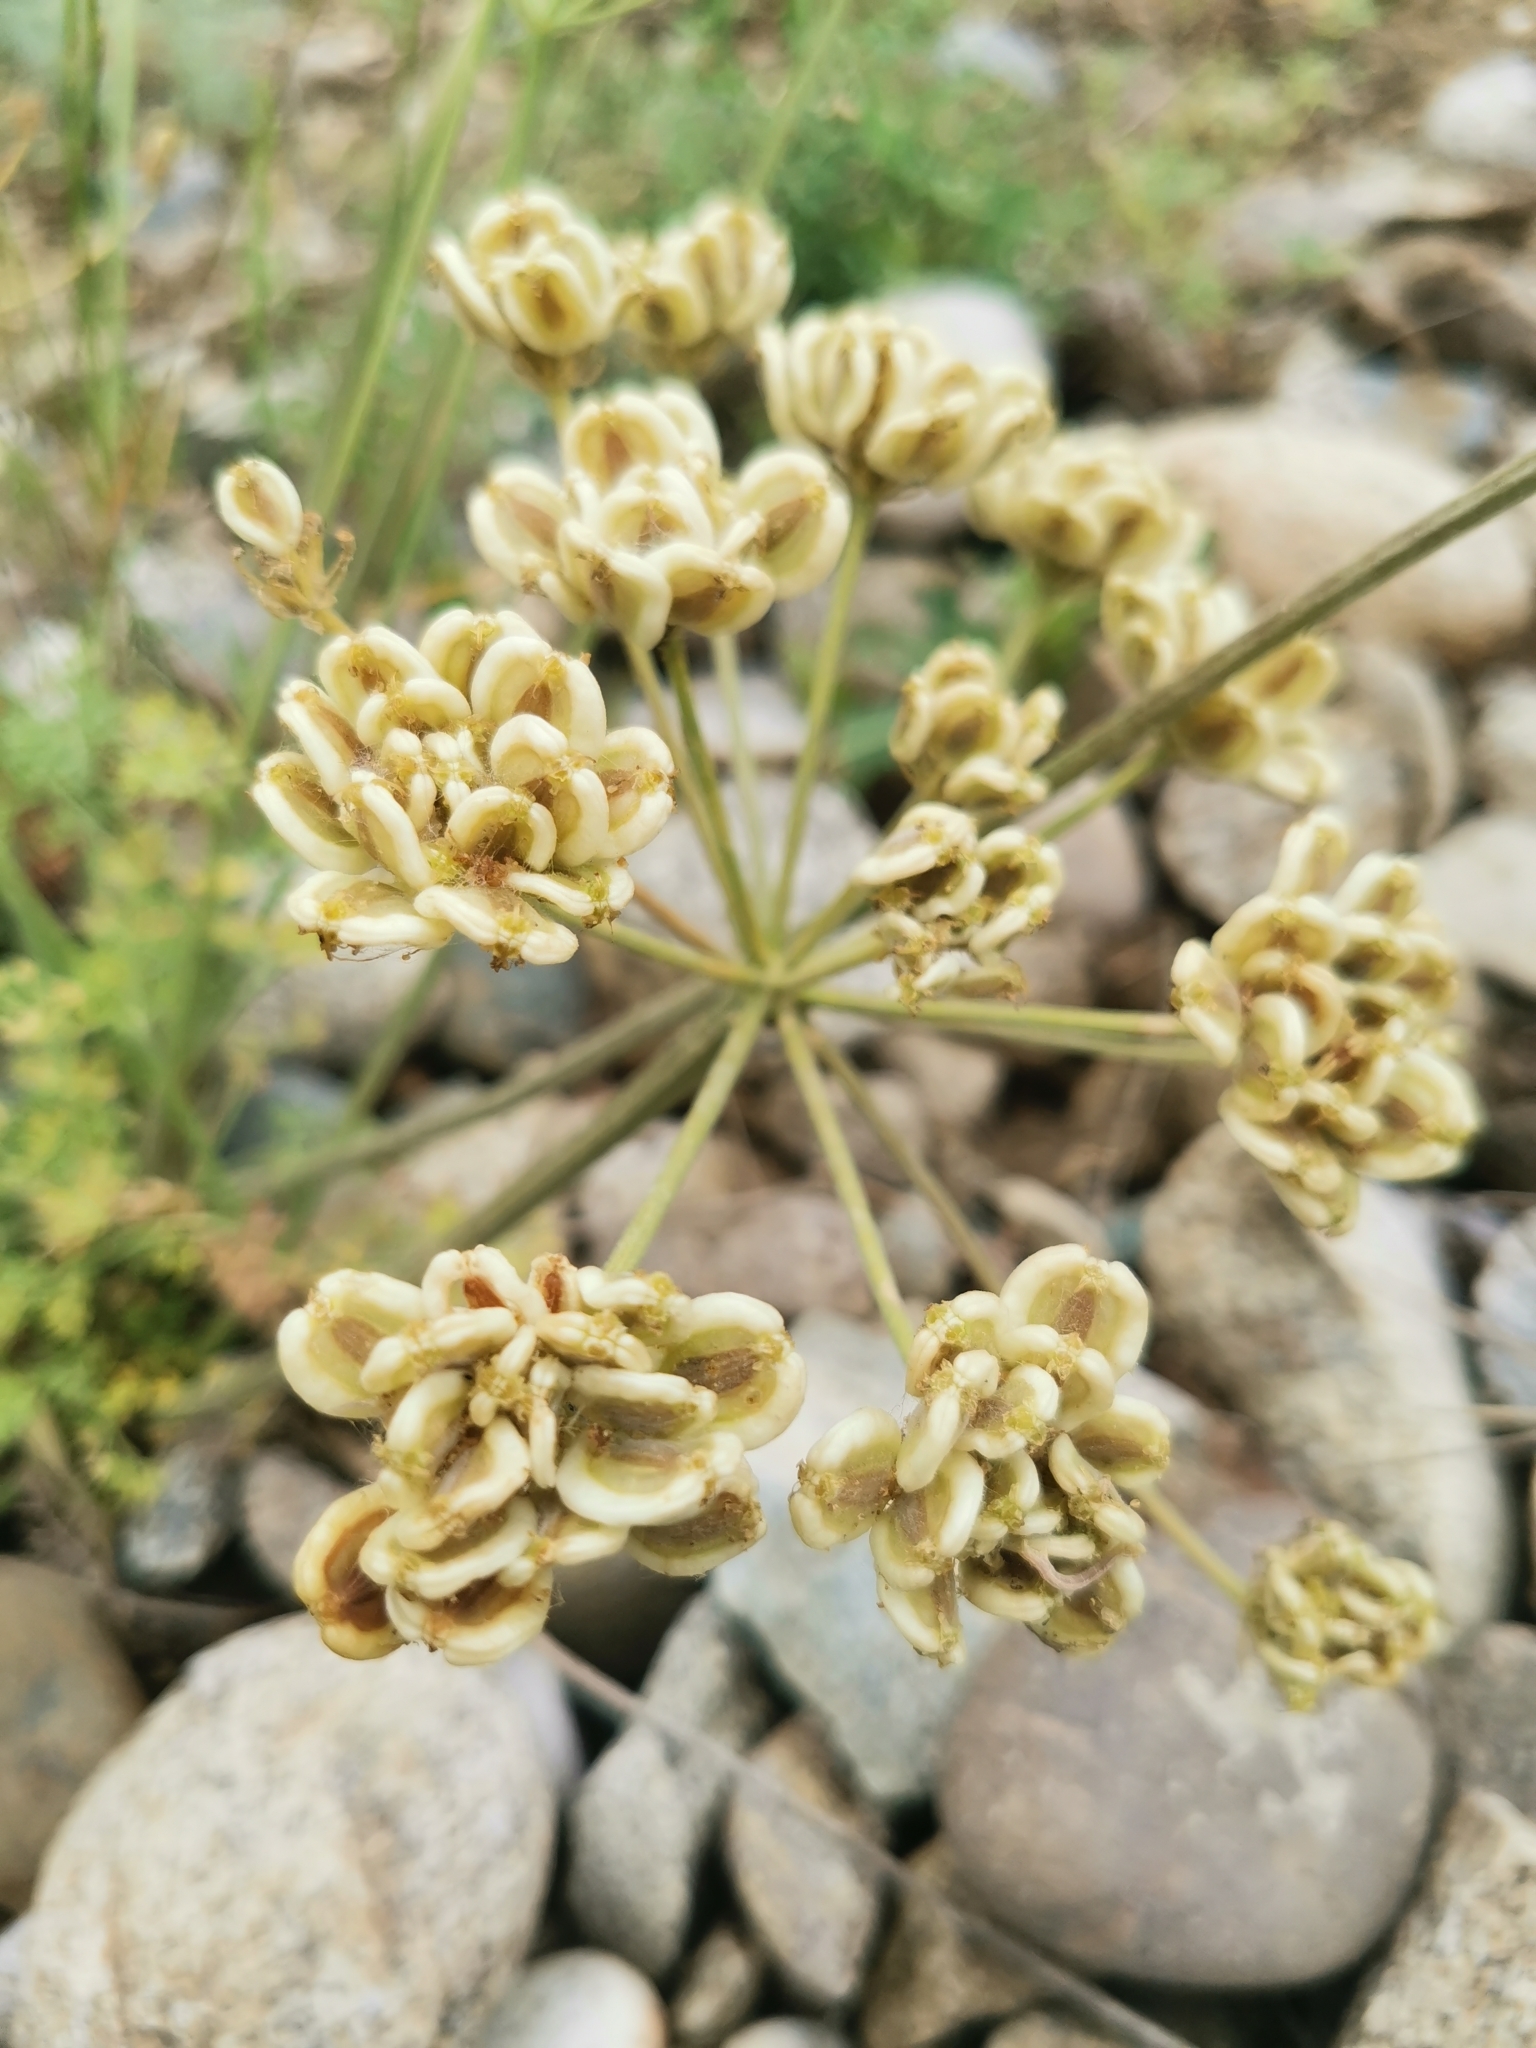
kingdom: Plantae
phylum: Tracheophyta
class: Magnoliopsida
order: Apiales
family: Apiaceae
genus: Zosima
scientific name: Zosima absinthiifolia
